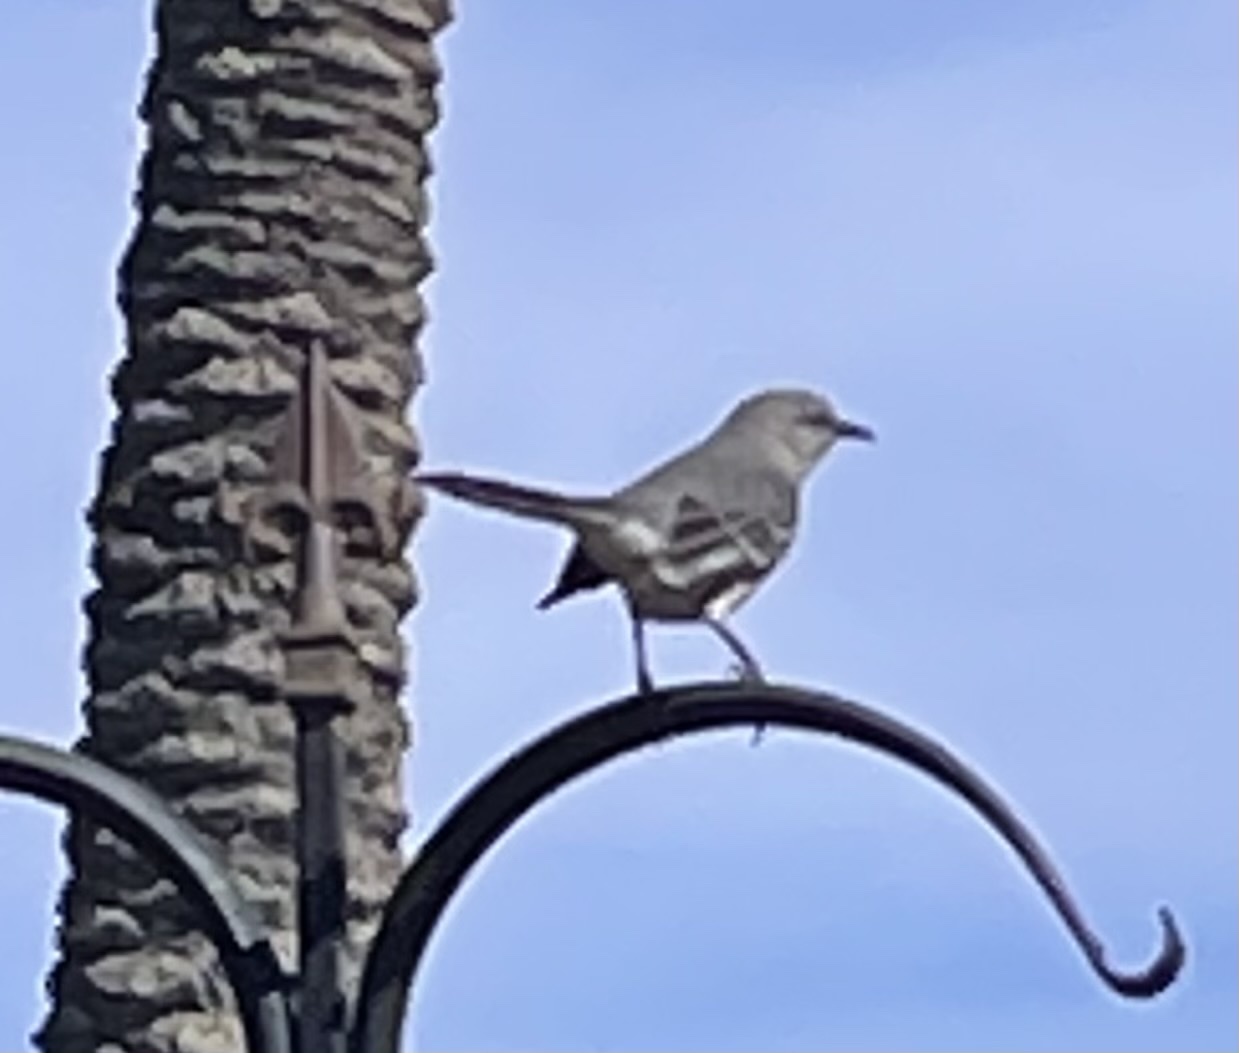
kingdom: Animalia
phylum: Chordata
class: Aves
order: Passeriformes
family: Mimidae
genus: Mimus
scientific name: Mimus polyglottos
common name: Northern mockingbird
